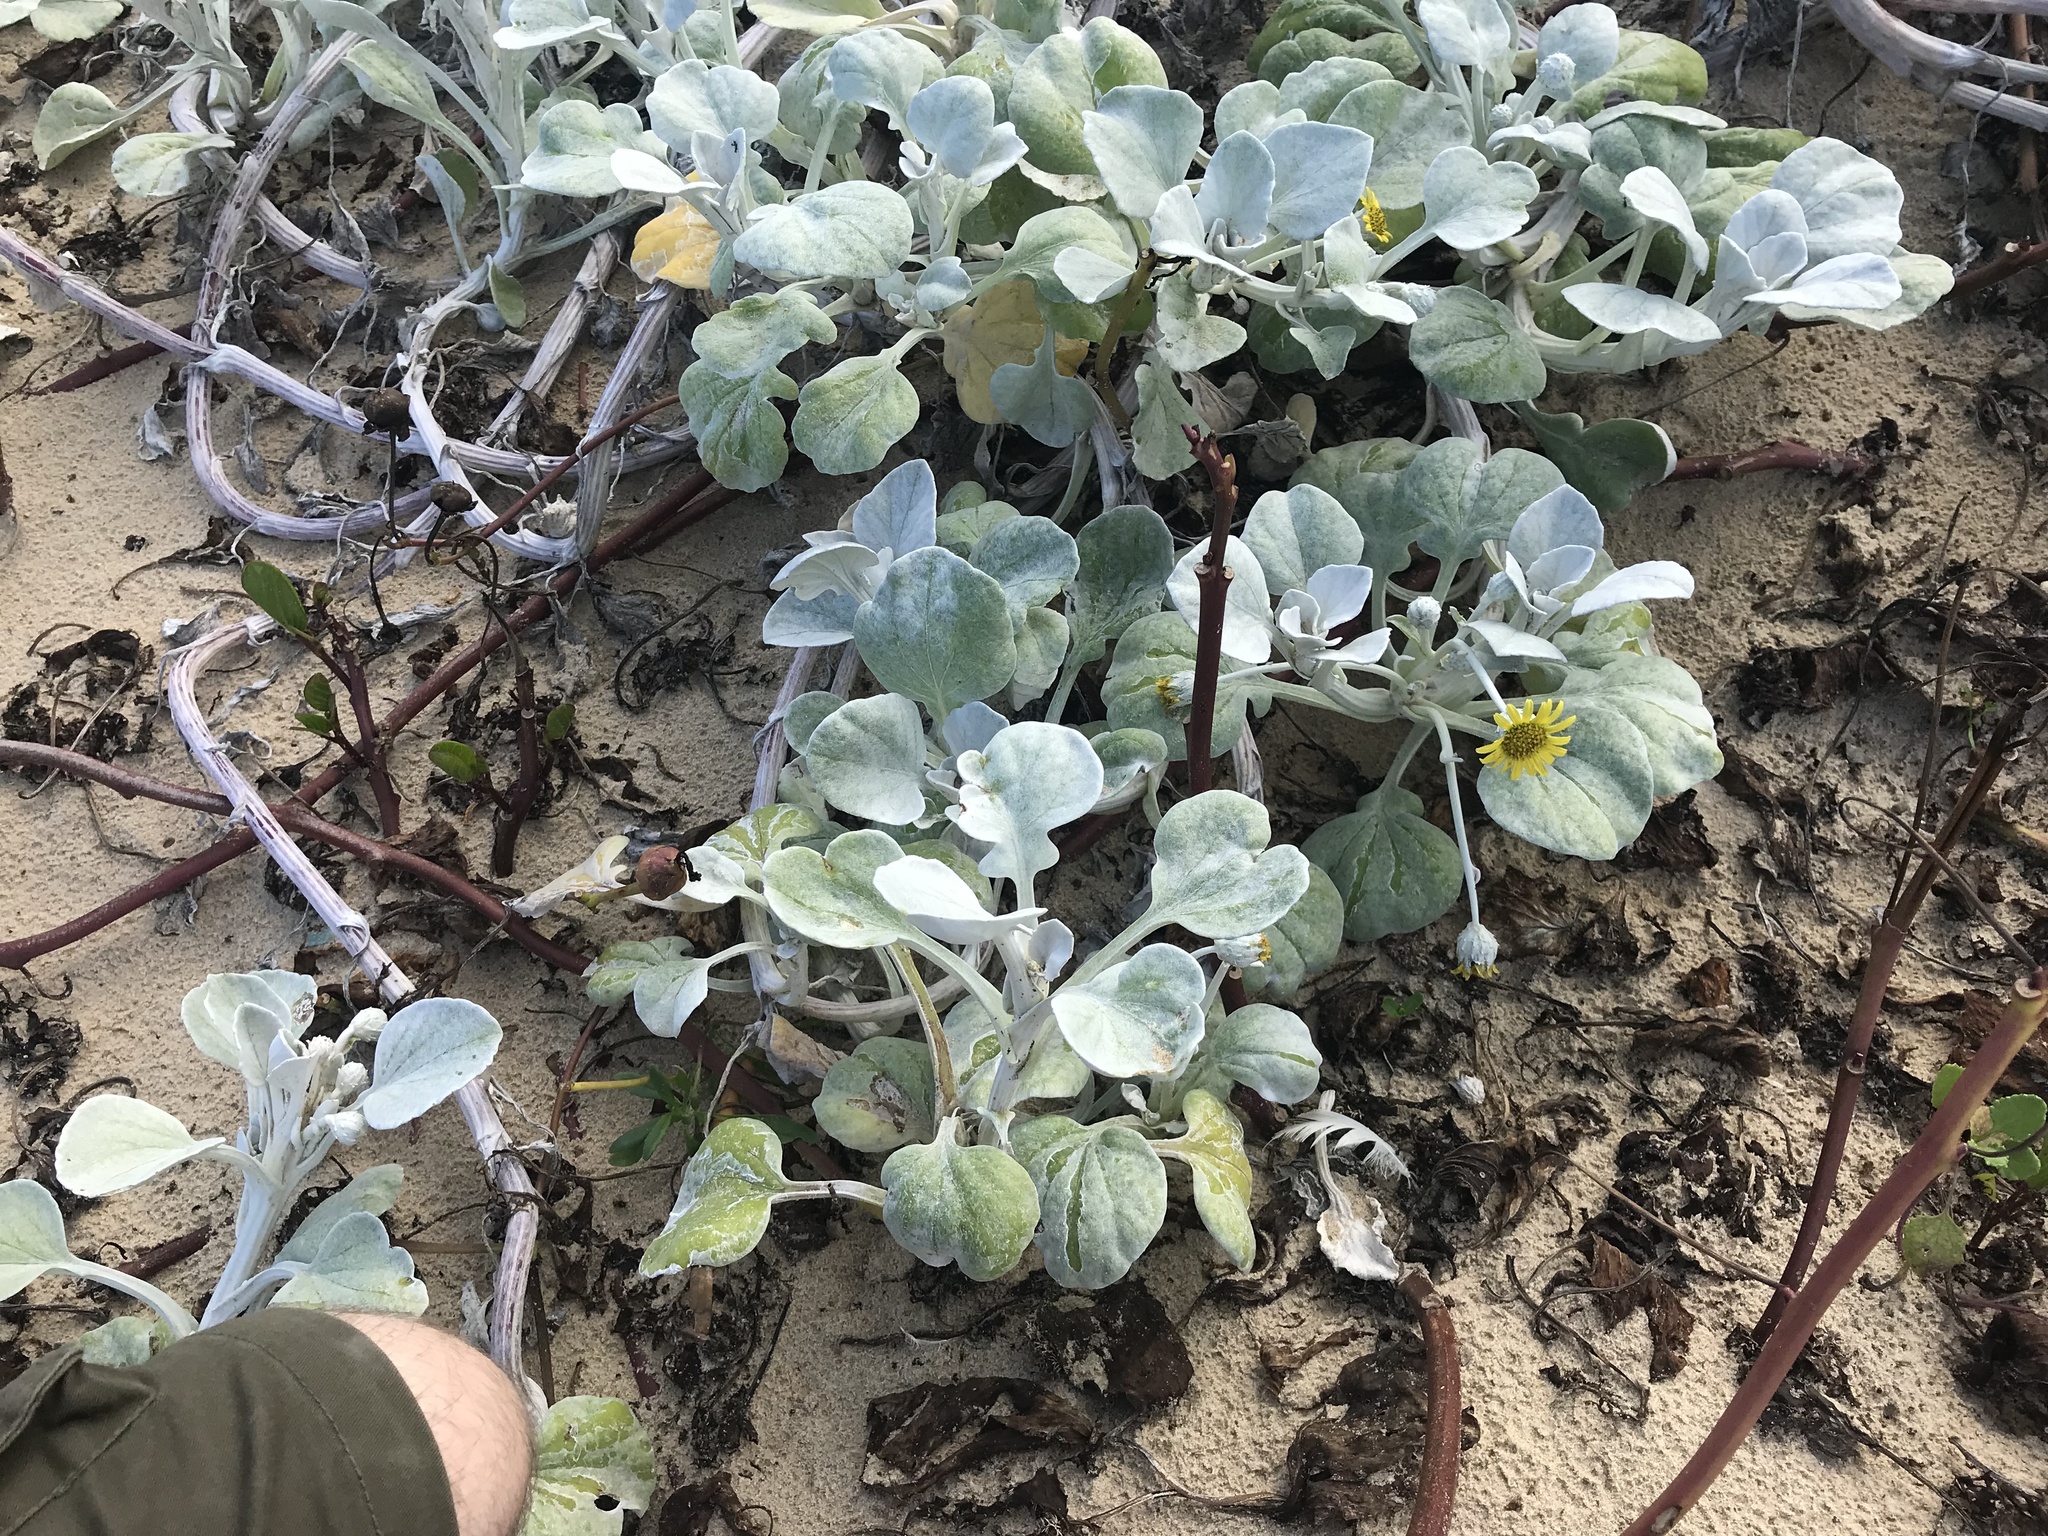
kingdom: Plantae
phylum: Tracheophyta
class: Magnoliopsida
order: Asterales
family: Asteraceae
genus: Arctotheca
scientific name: Arctotheca populifolia
